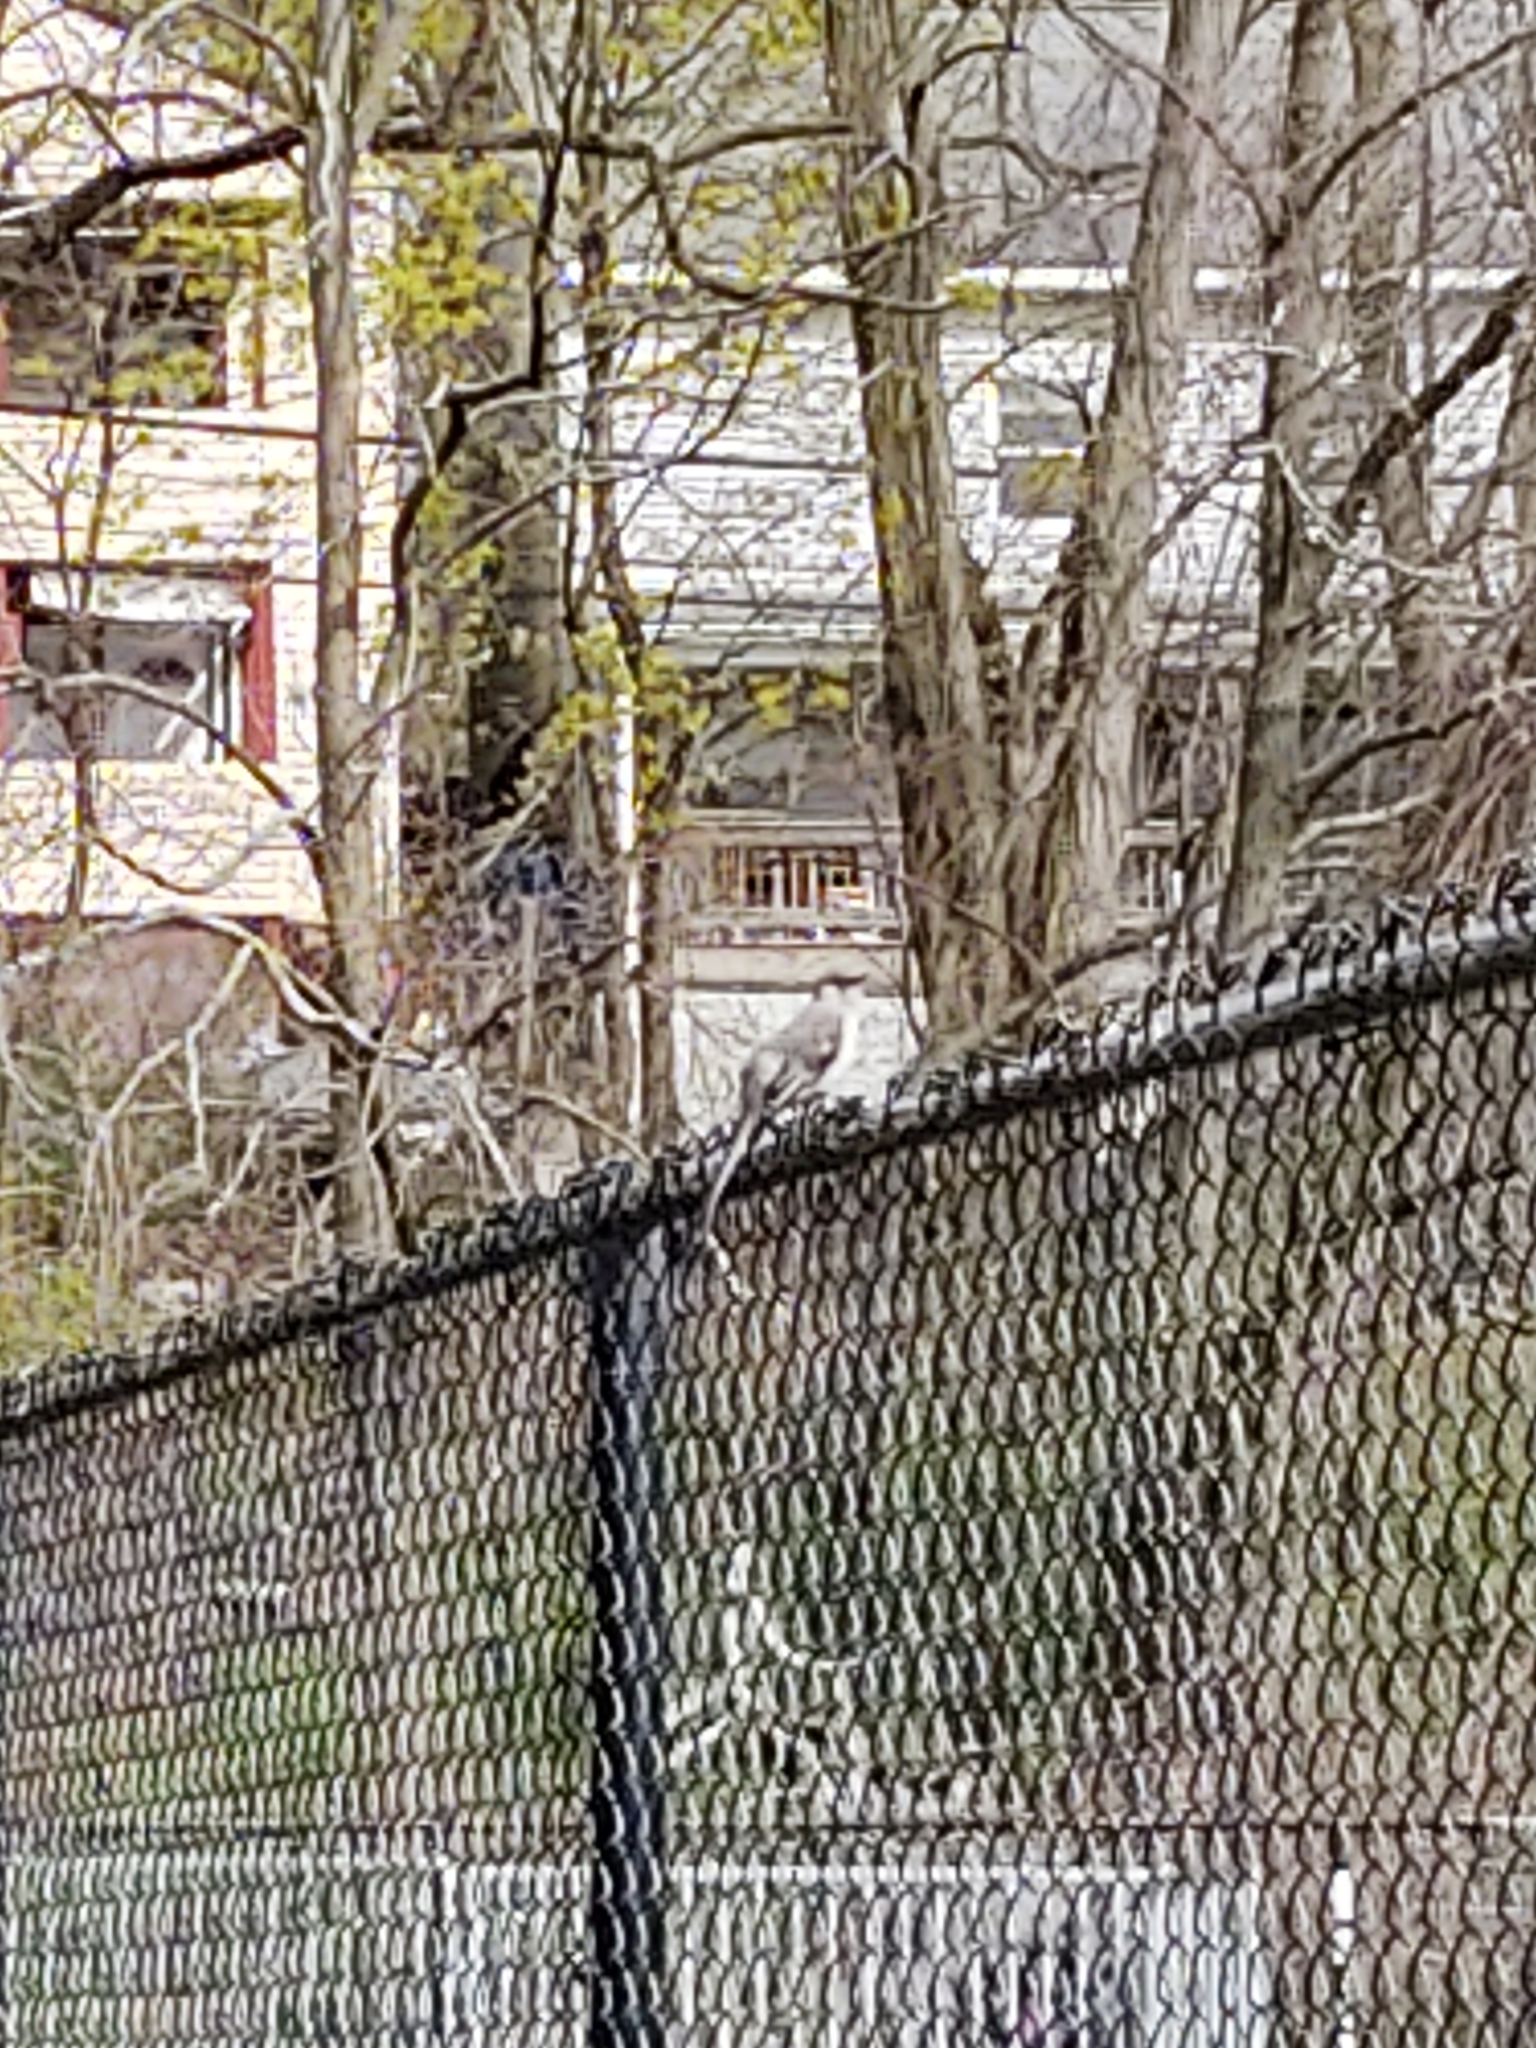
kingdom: Animalia
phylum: Chordata
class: Aves
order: Passeriformes
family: Mimidae
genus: Mimus
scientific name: Mimus polyglottos
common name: Northern mockingbird
